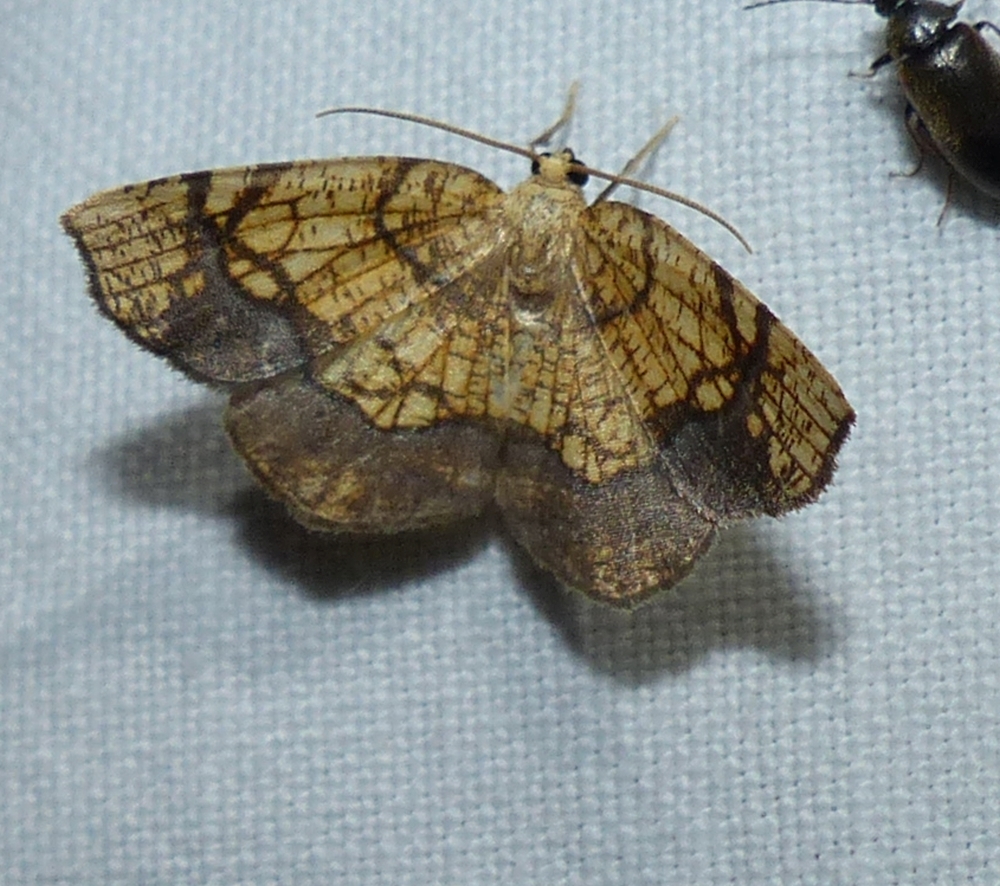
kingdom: Animalia
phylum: Arthropoda
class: Insecta
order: Lepidoptera
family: Geometridae
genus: Nematocampa
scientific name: Nematocampa resistaria
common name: Horned spanworm moth
